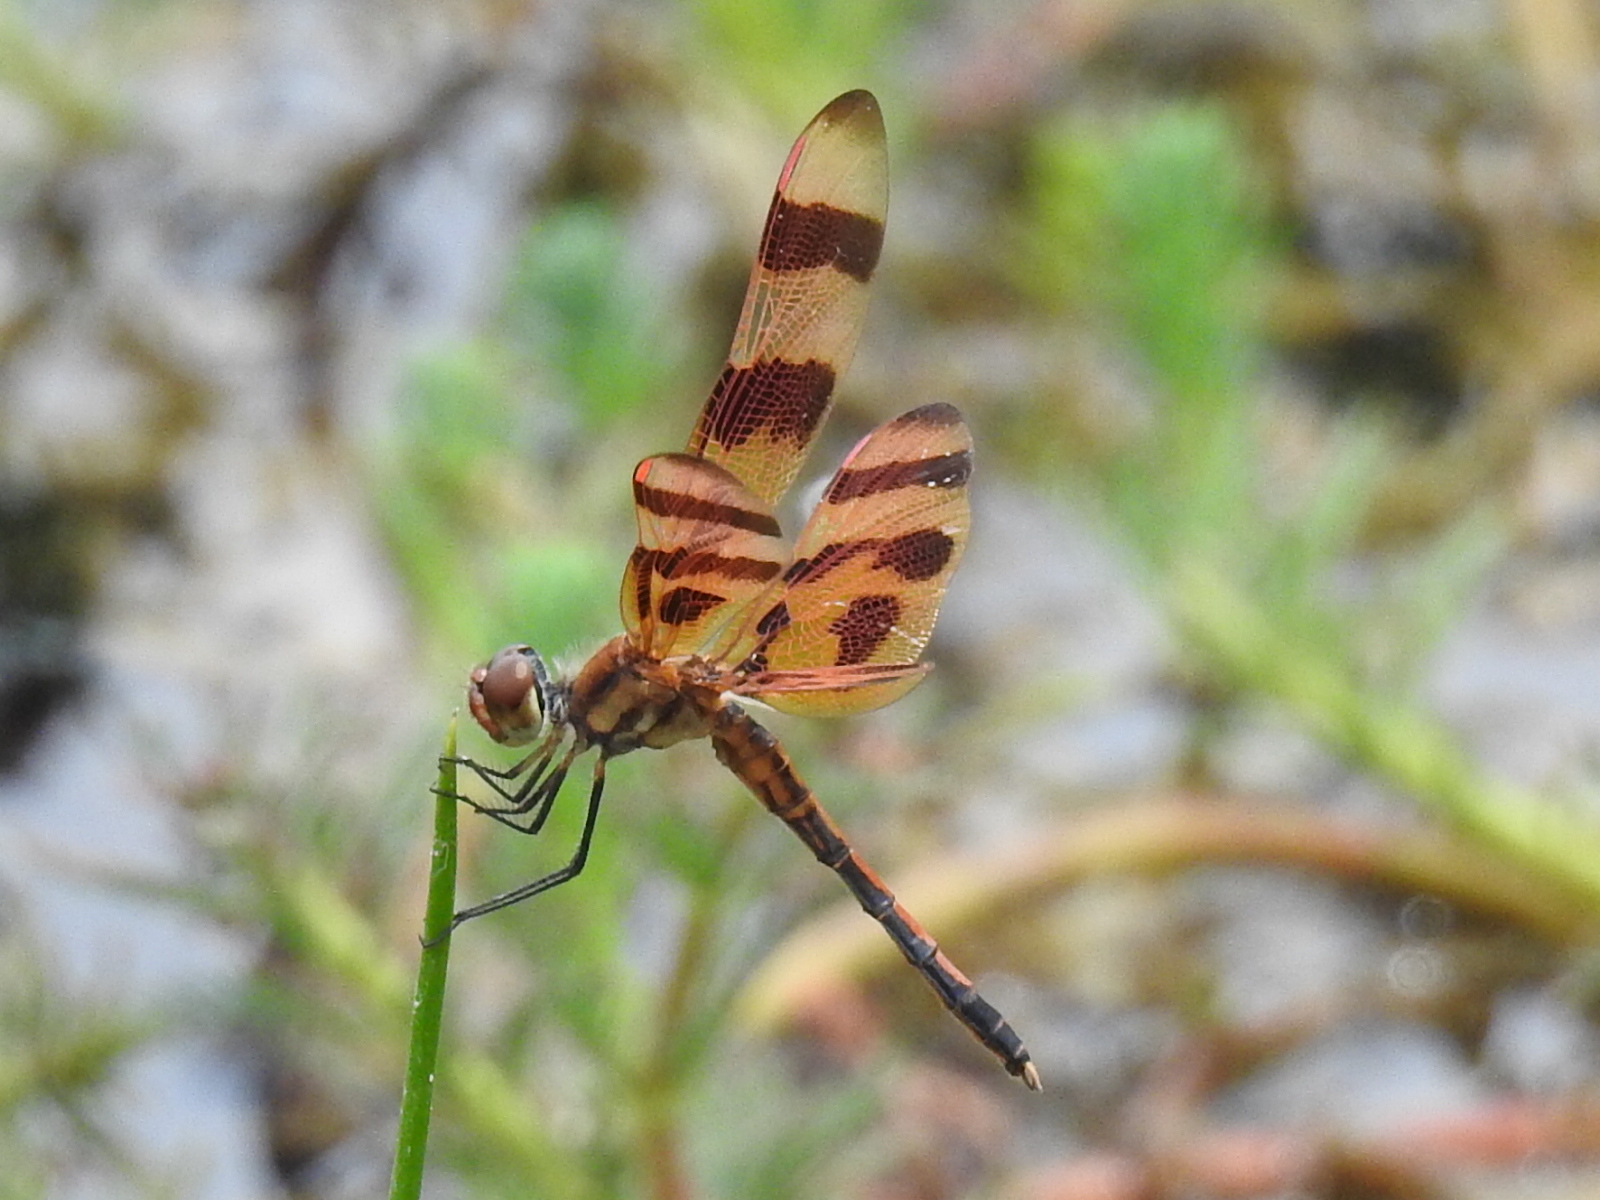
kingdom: Animalia
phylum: Arthropoda
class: Insecta
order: Odonata
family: Libellulidae
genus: Celithemis
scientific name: Celithemis eponina
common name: Halloween pennant
